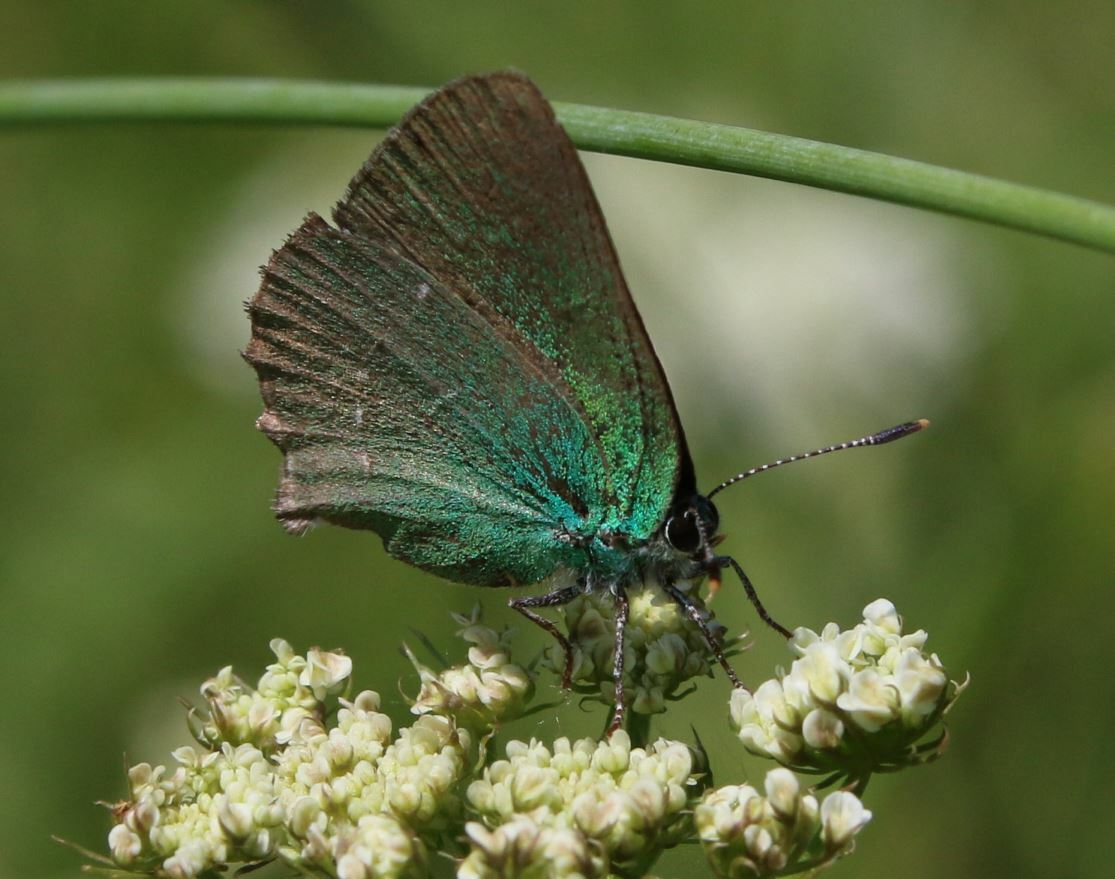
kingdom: Animalia
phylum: Arthropoda
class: Insecta
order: Lepidoptera
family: Lycaenidae
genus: Callophrys
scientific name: Callophrys rubi
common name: Green hairstreak
